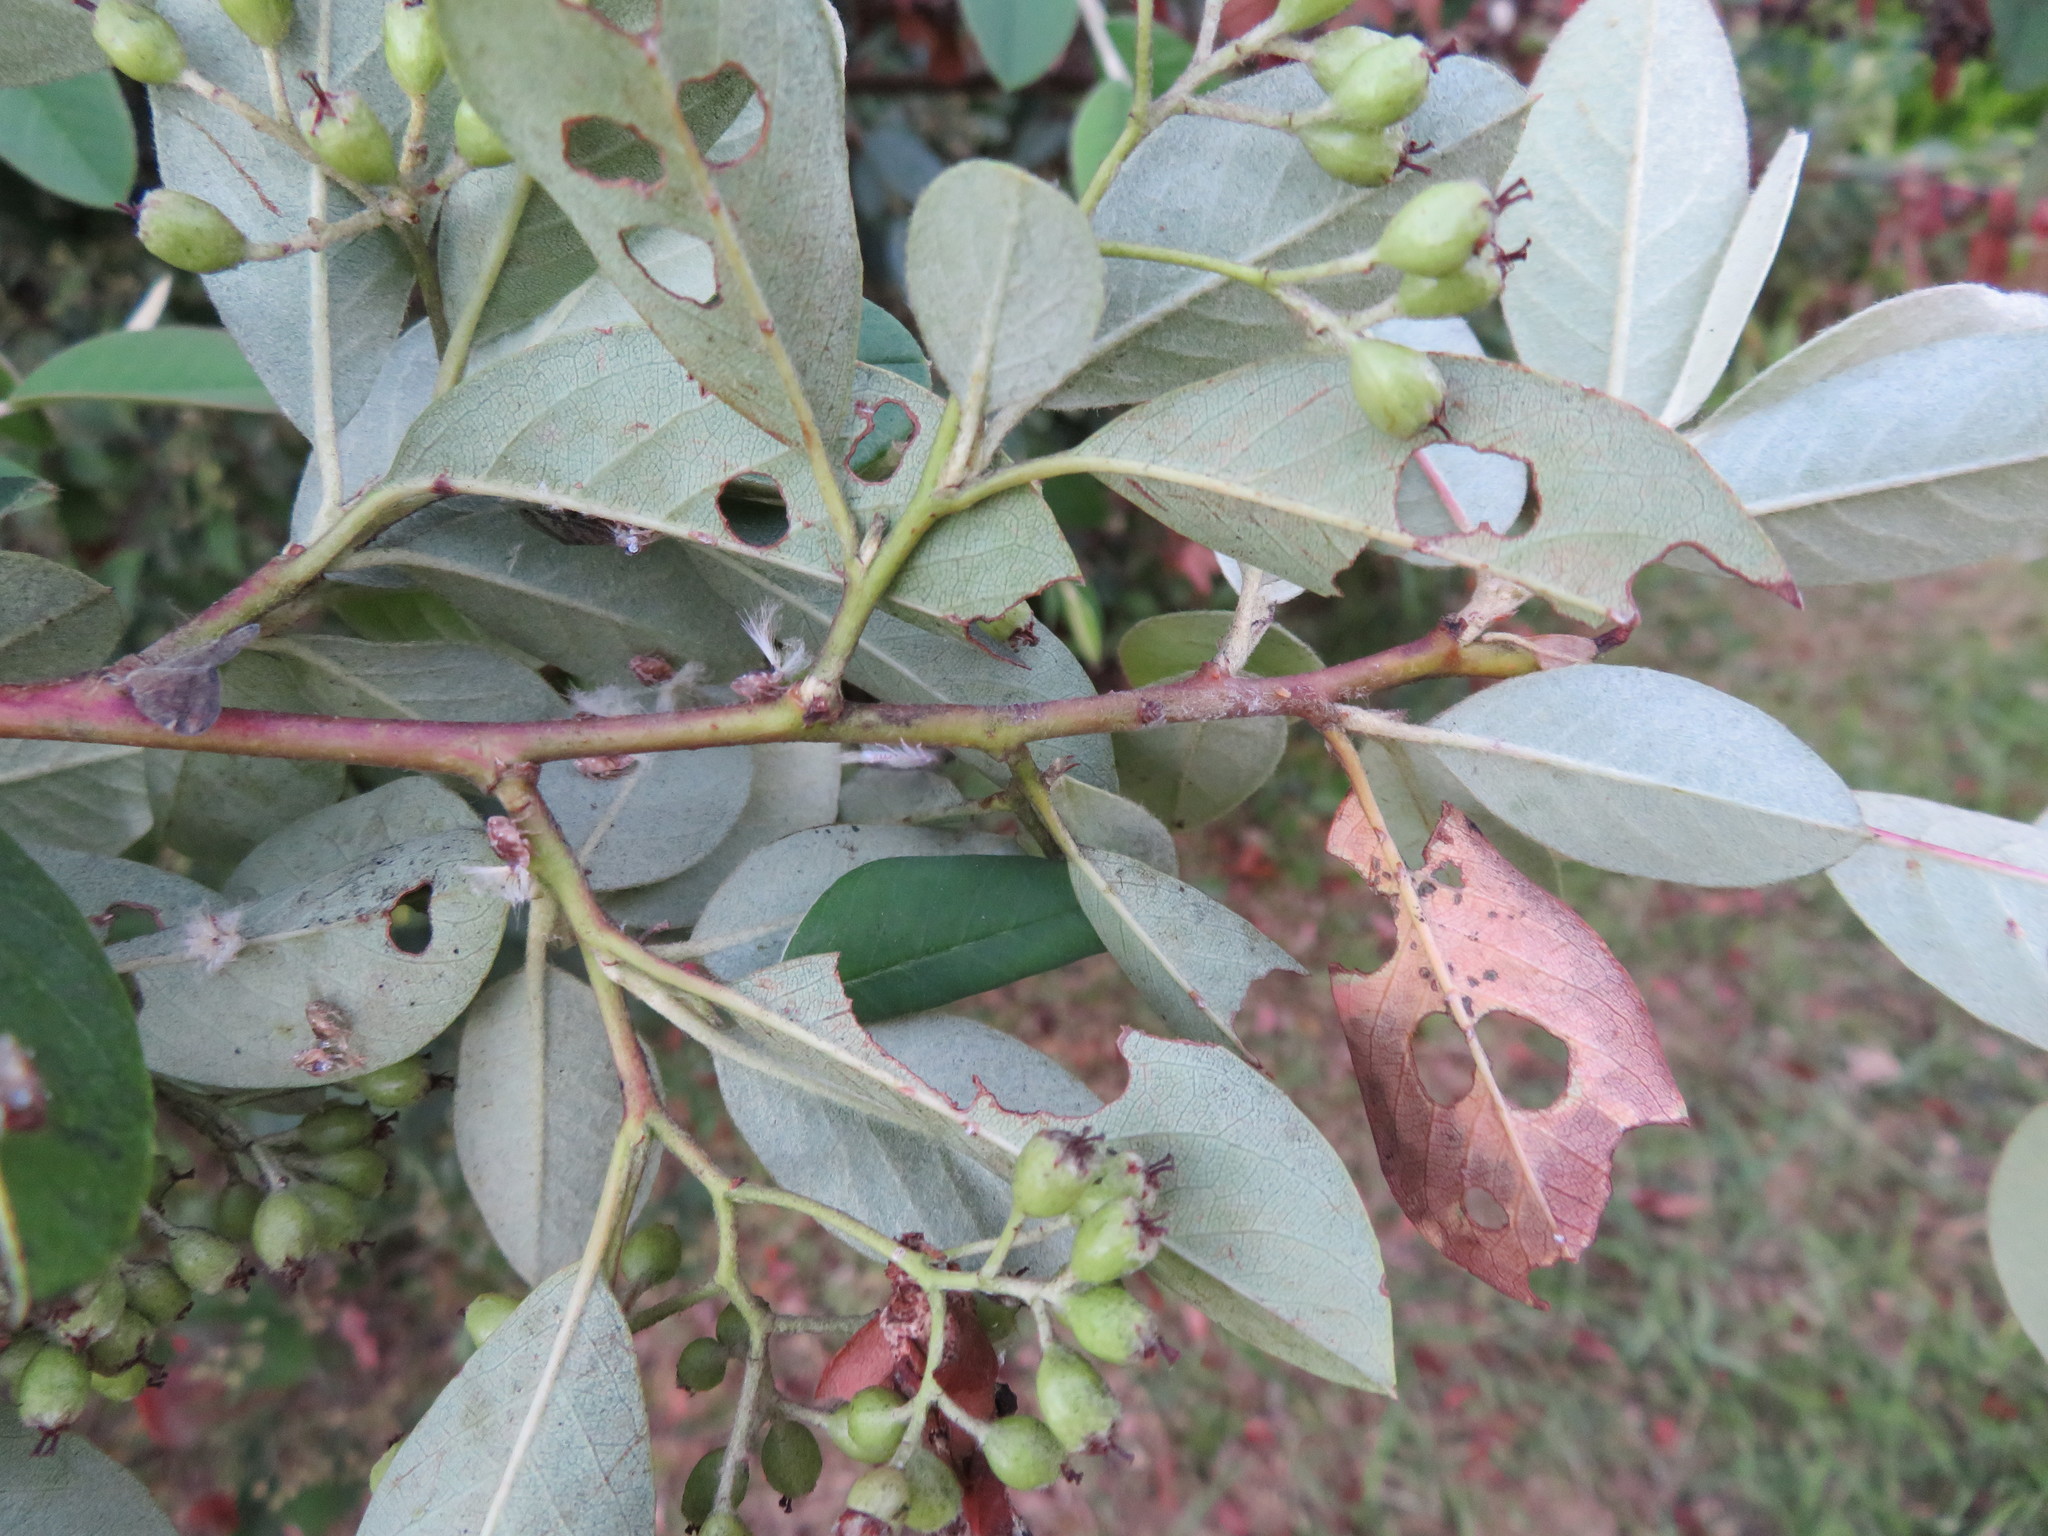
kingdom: Plantae
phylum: Tracheophyta
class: Magnoliopsida
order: Rosales
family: Rosaceae
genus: Cotoneaster
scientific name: Cotoneaster glaucophyllus
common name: Glaucous cotoneaster
